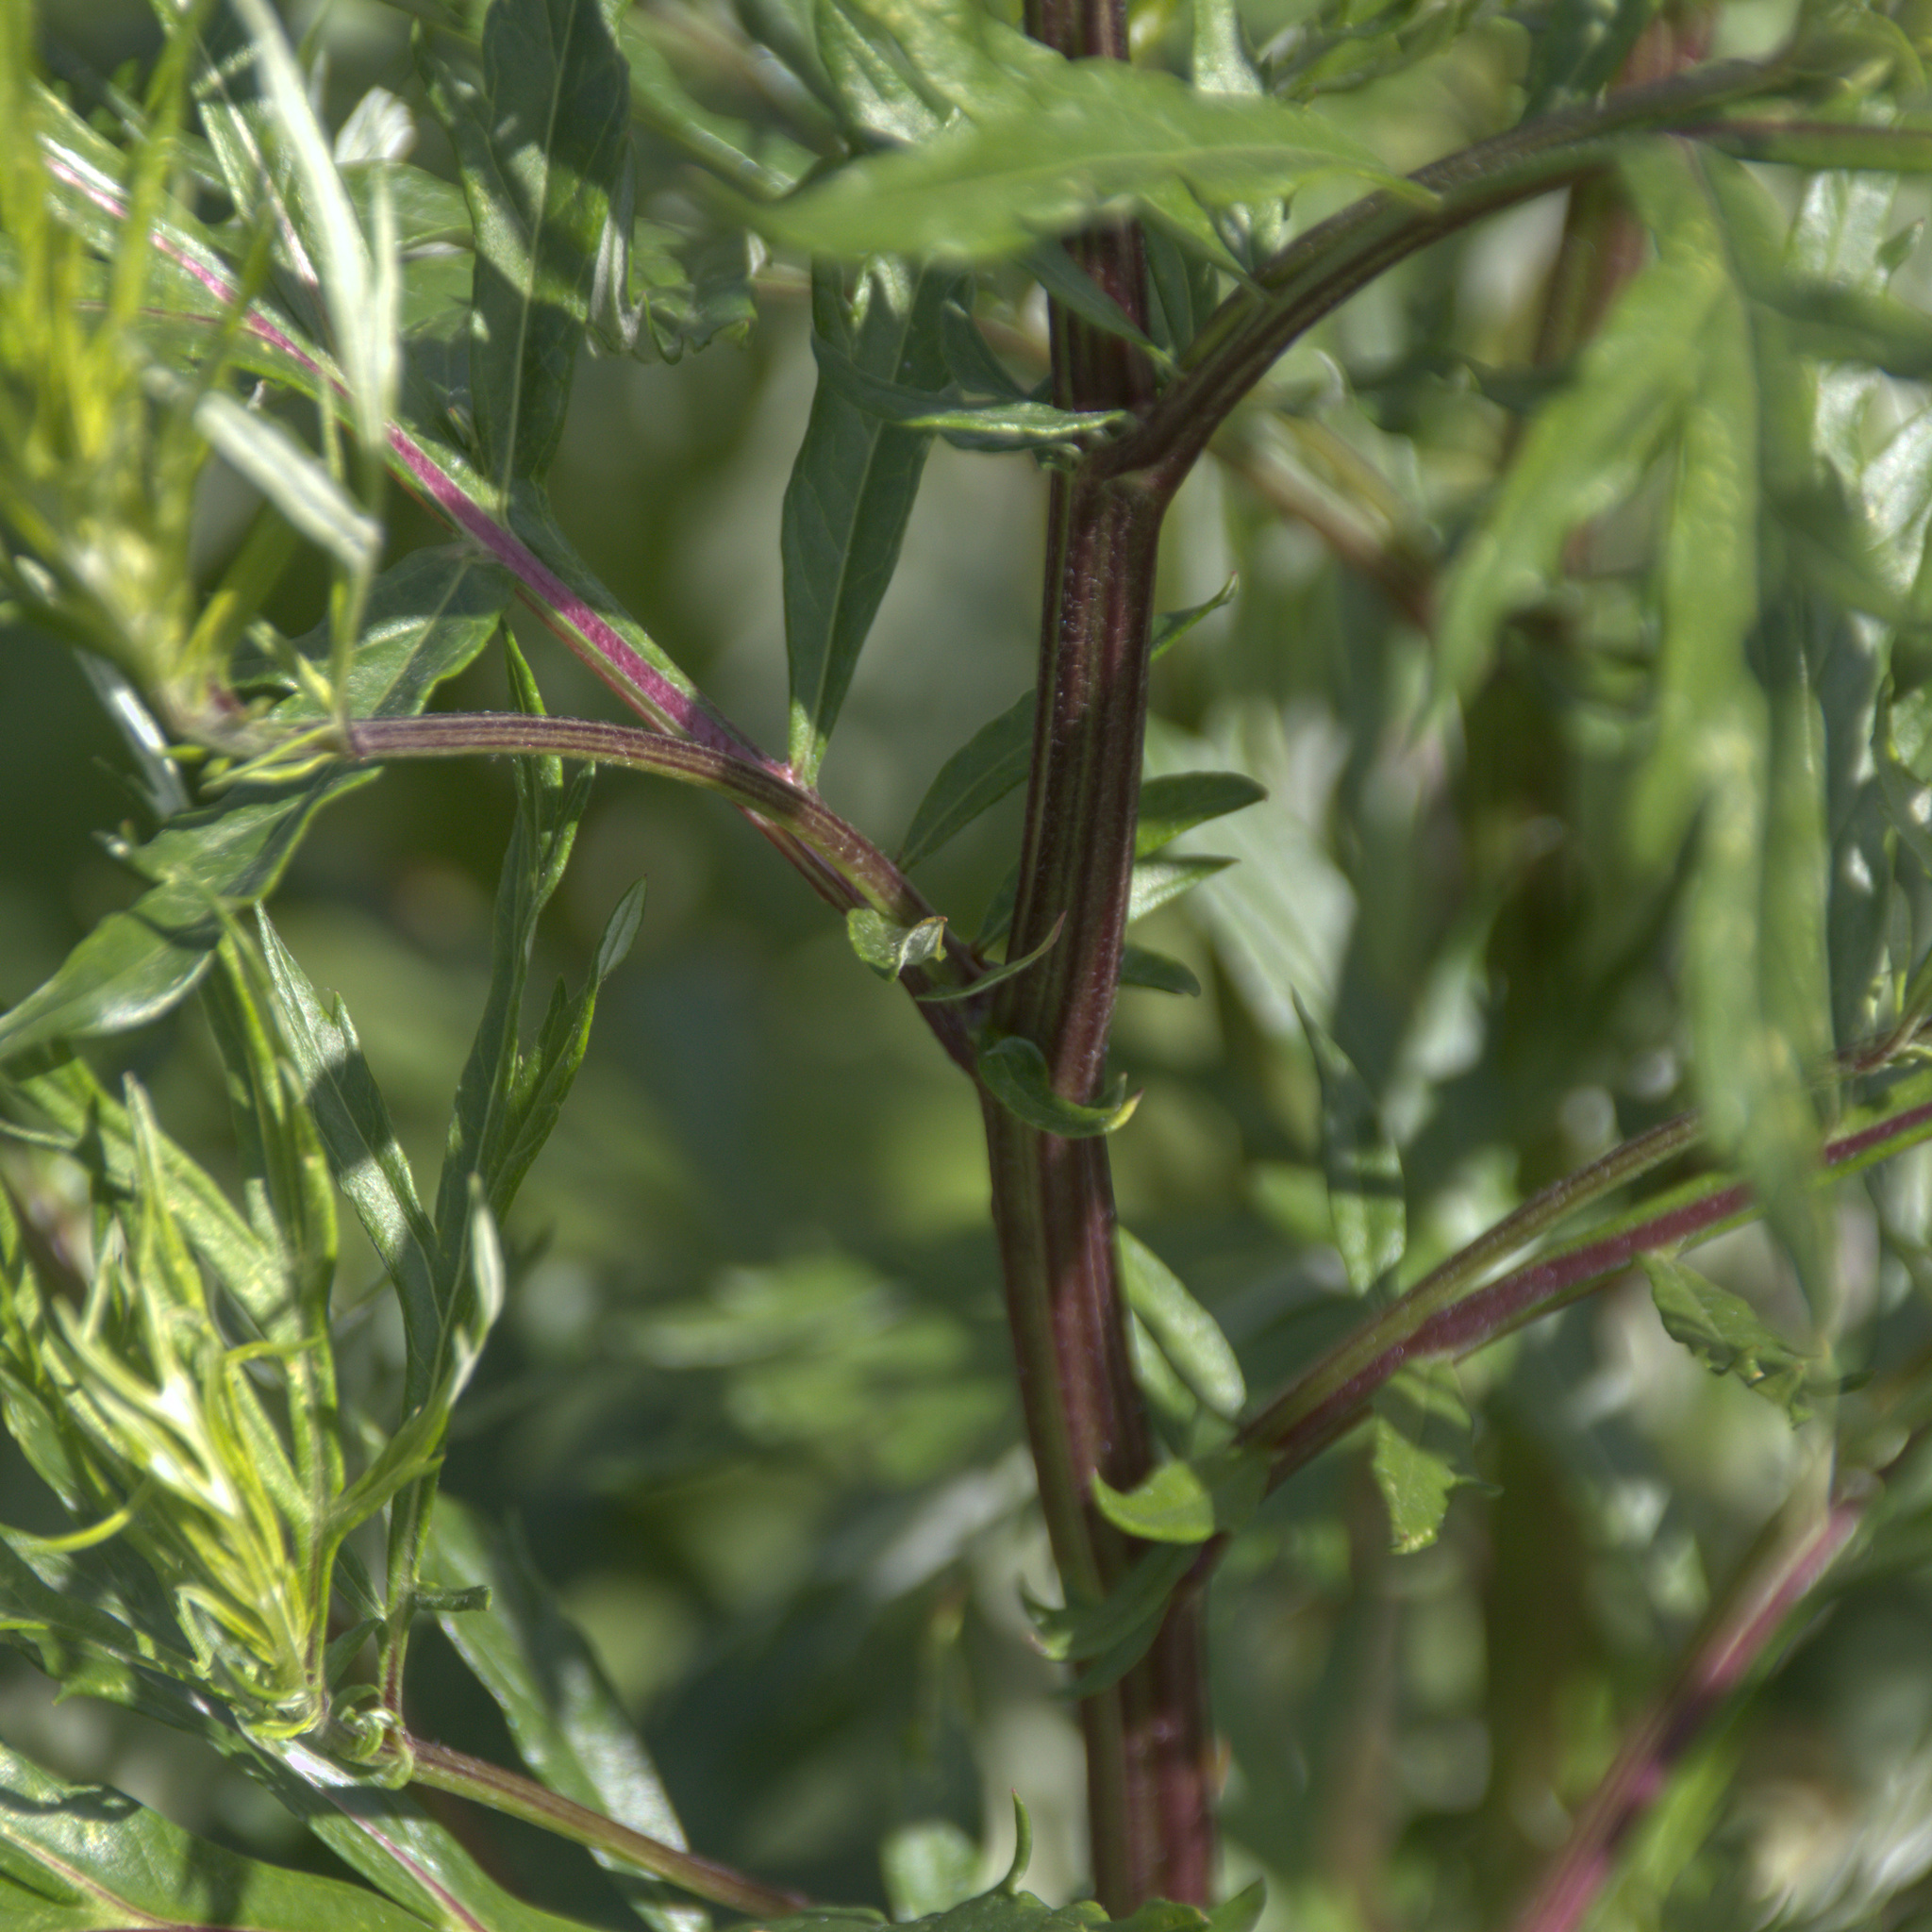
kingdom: Plantae
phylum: Tracheophyta
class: Magnoliopsida
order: Asterales
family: Asteraceae
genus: Artemisia
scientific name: Artemisia vulgaris
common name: Mugwort
